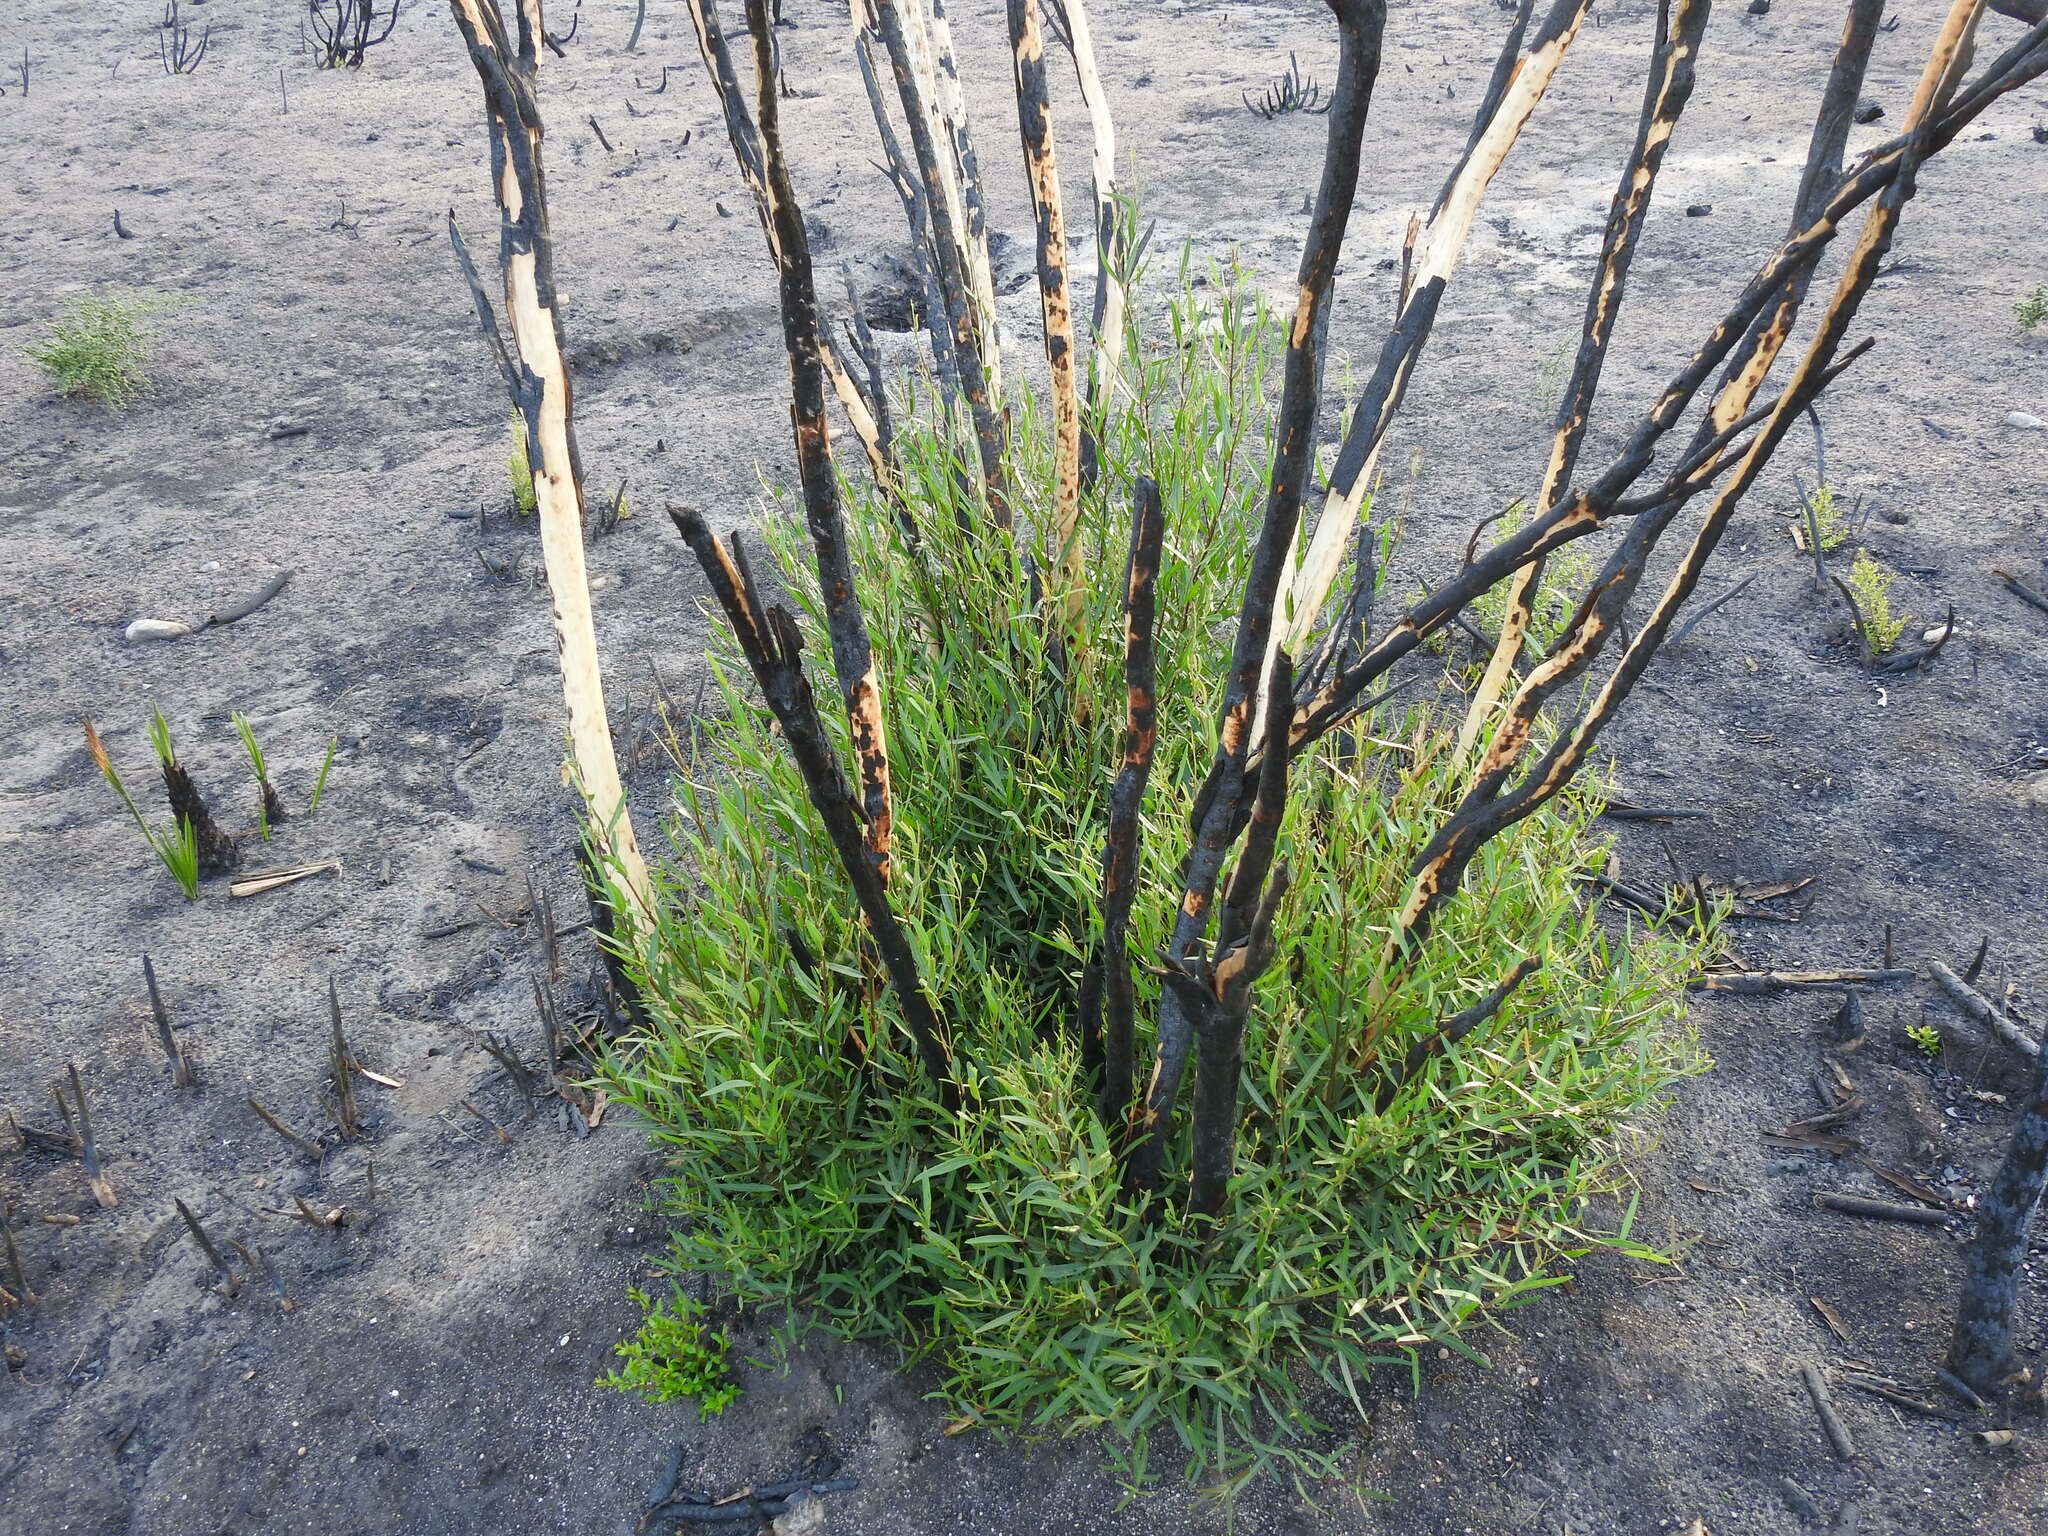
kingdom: Plantae
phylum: Tracheophyta
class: Magnoliopsida
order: Lamiales
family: Oleaceae
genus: Phillyrea
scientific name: Phillyrea angustifolia
